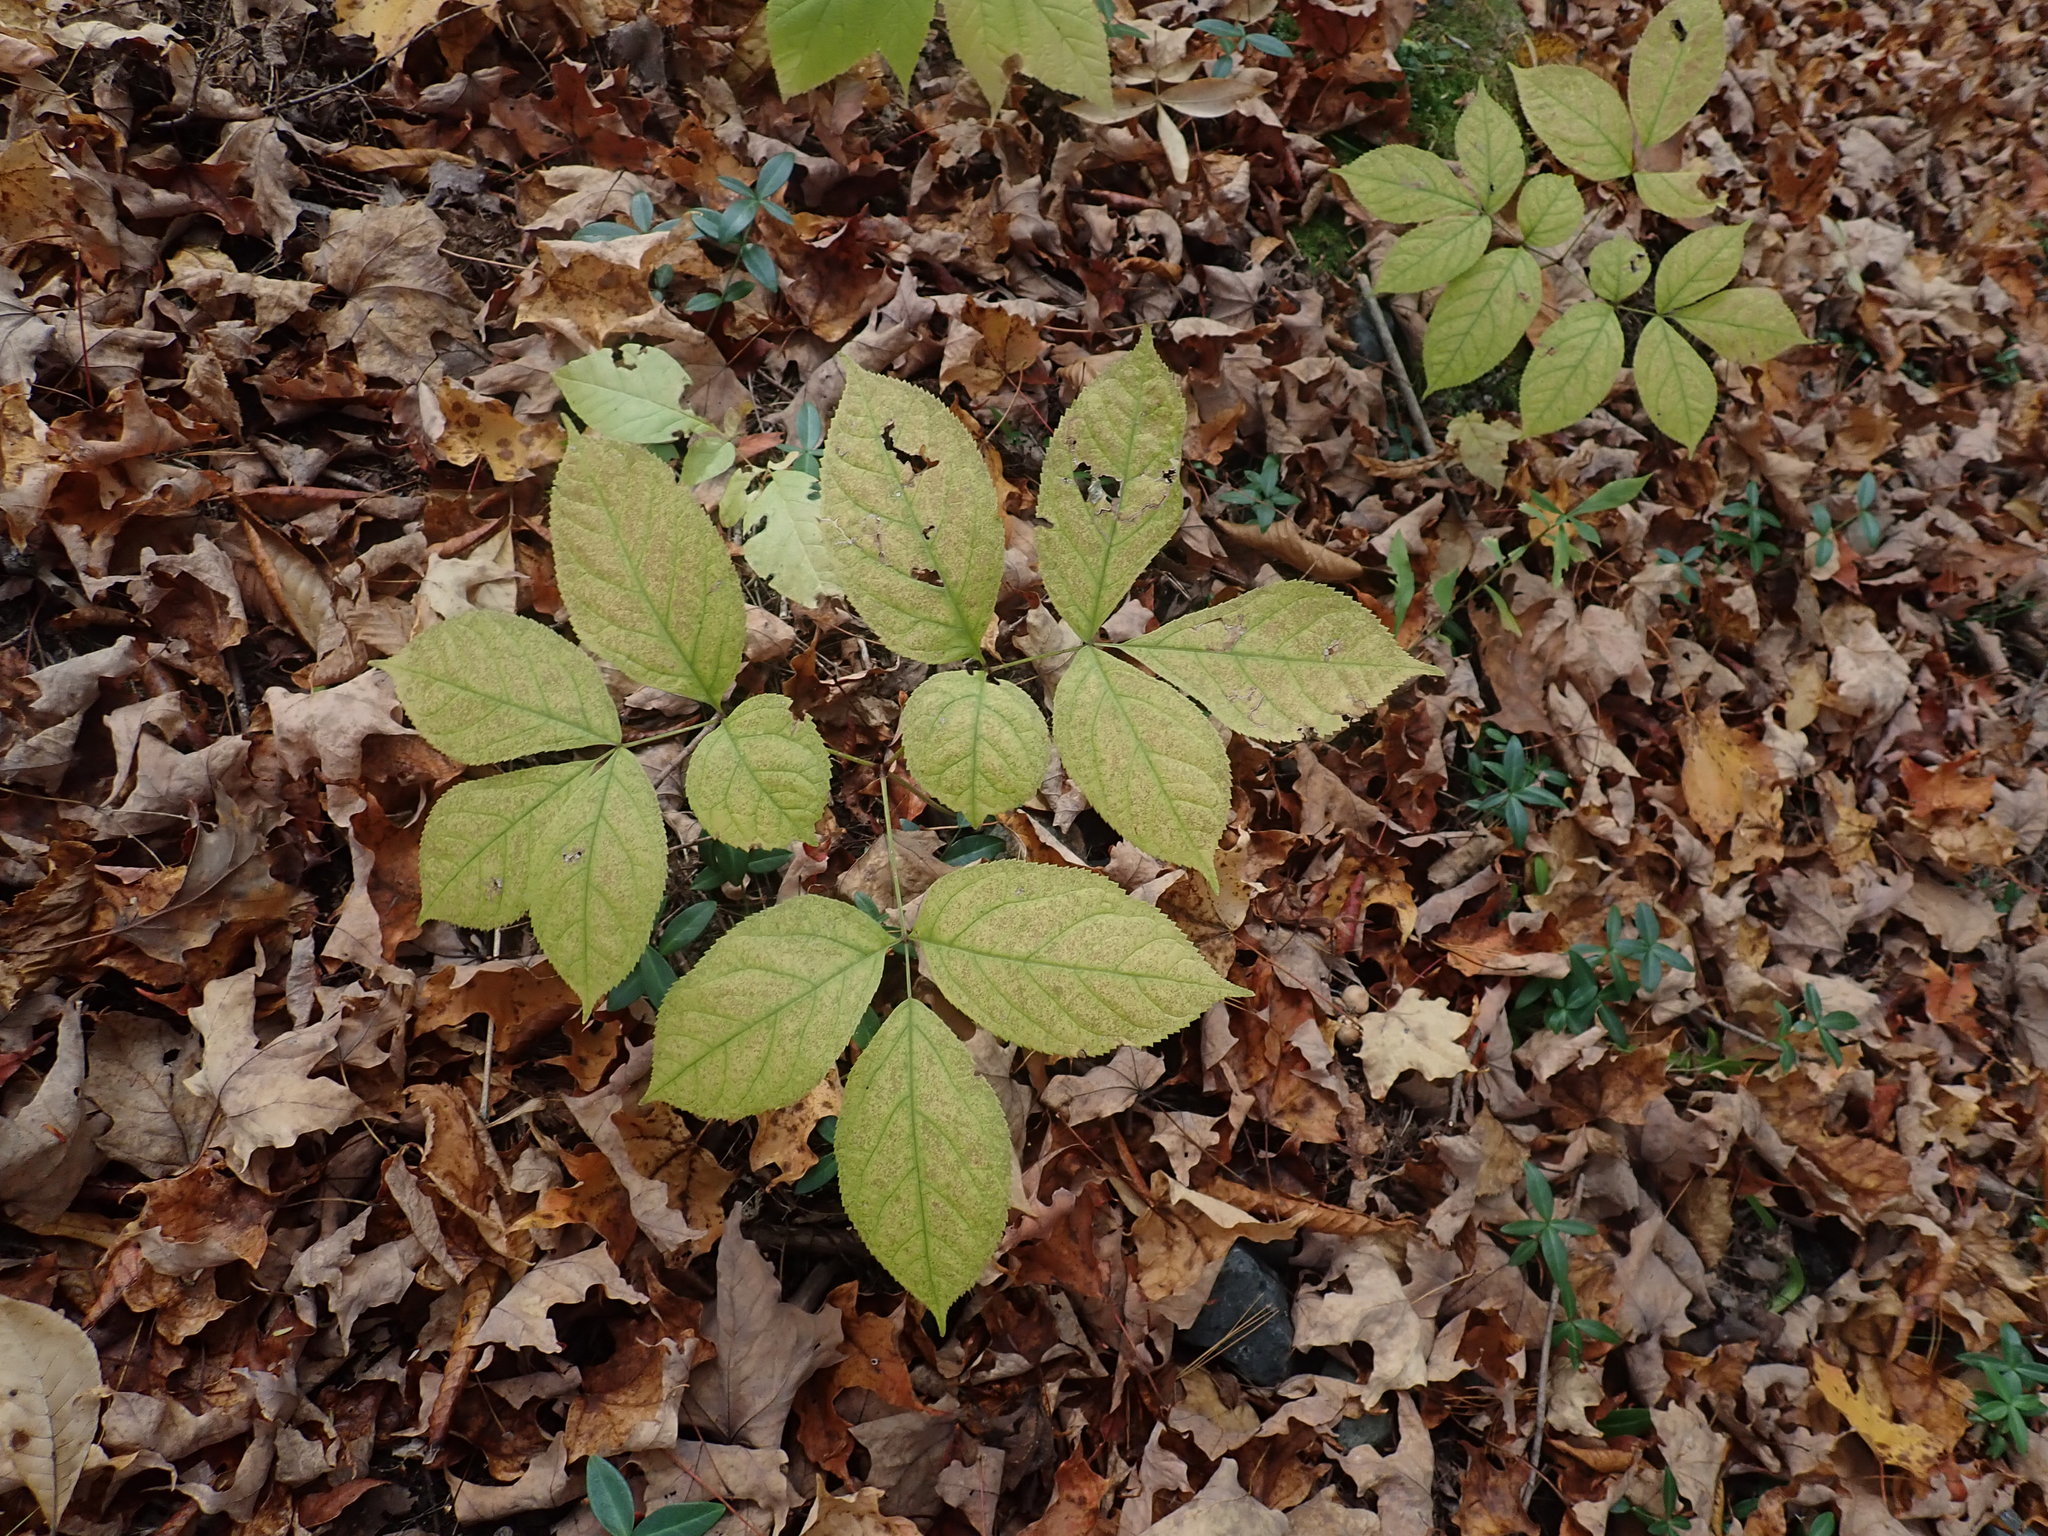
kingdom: Plantae
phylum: Tracheophyta
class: Magnoliopsida
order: Apiales
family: Araliaceae
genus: Aralia
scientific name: Aralia nudicaulis
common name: Wild sarsaparilla
